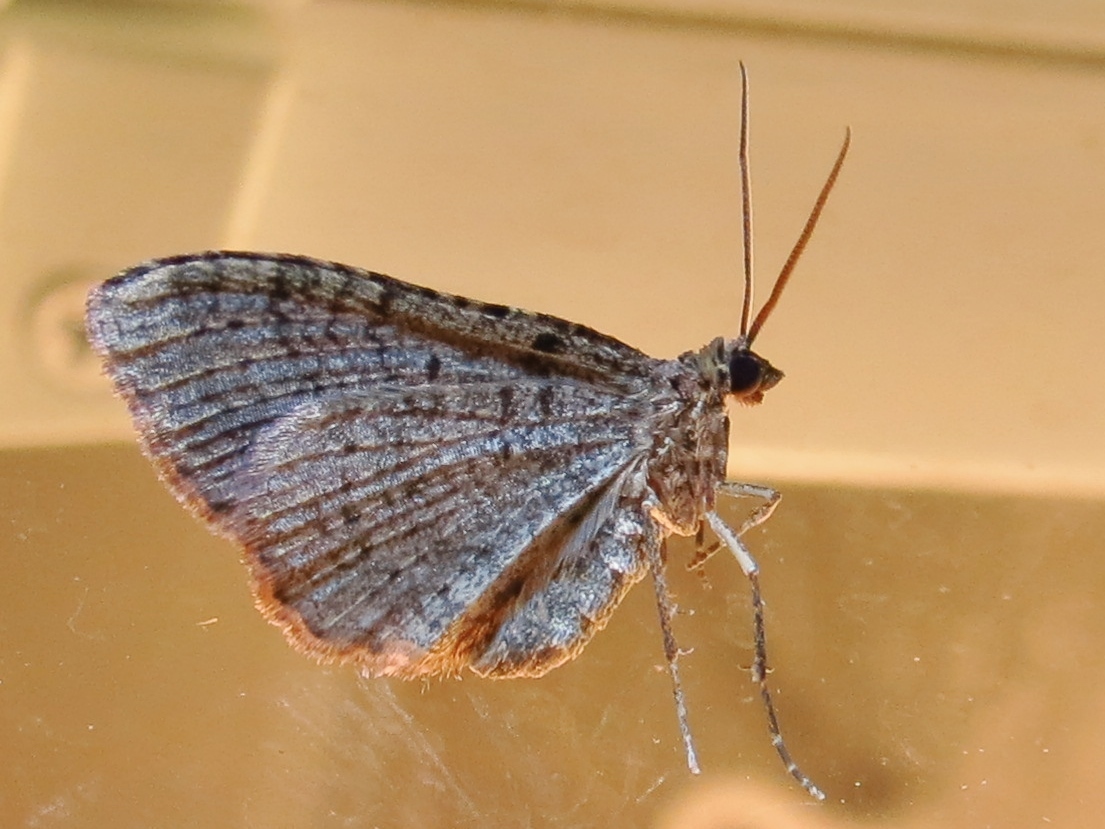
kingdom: Animalia
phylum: Arthropoda
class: Insecta
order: Lepidoptera
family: Geometridae
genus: Costaconvexa
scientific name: Costaconvexa centrostrigaria
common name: Bent-line carpet
